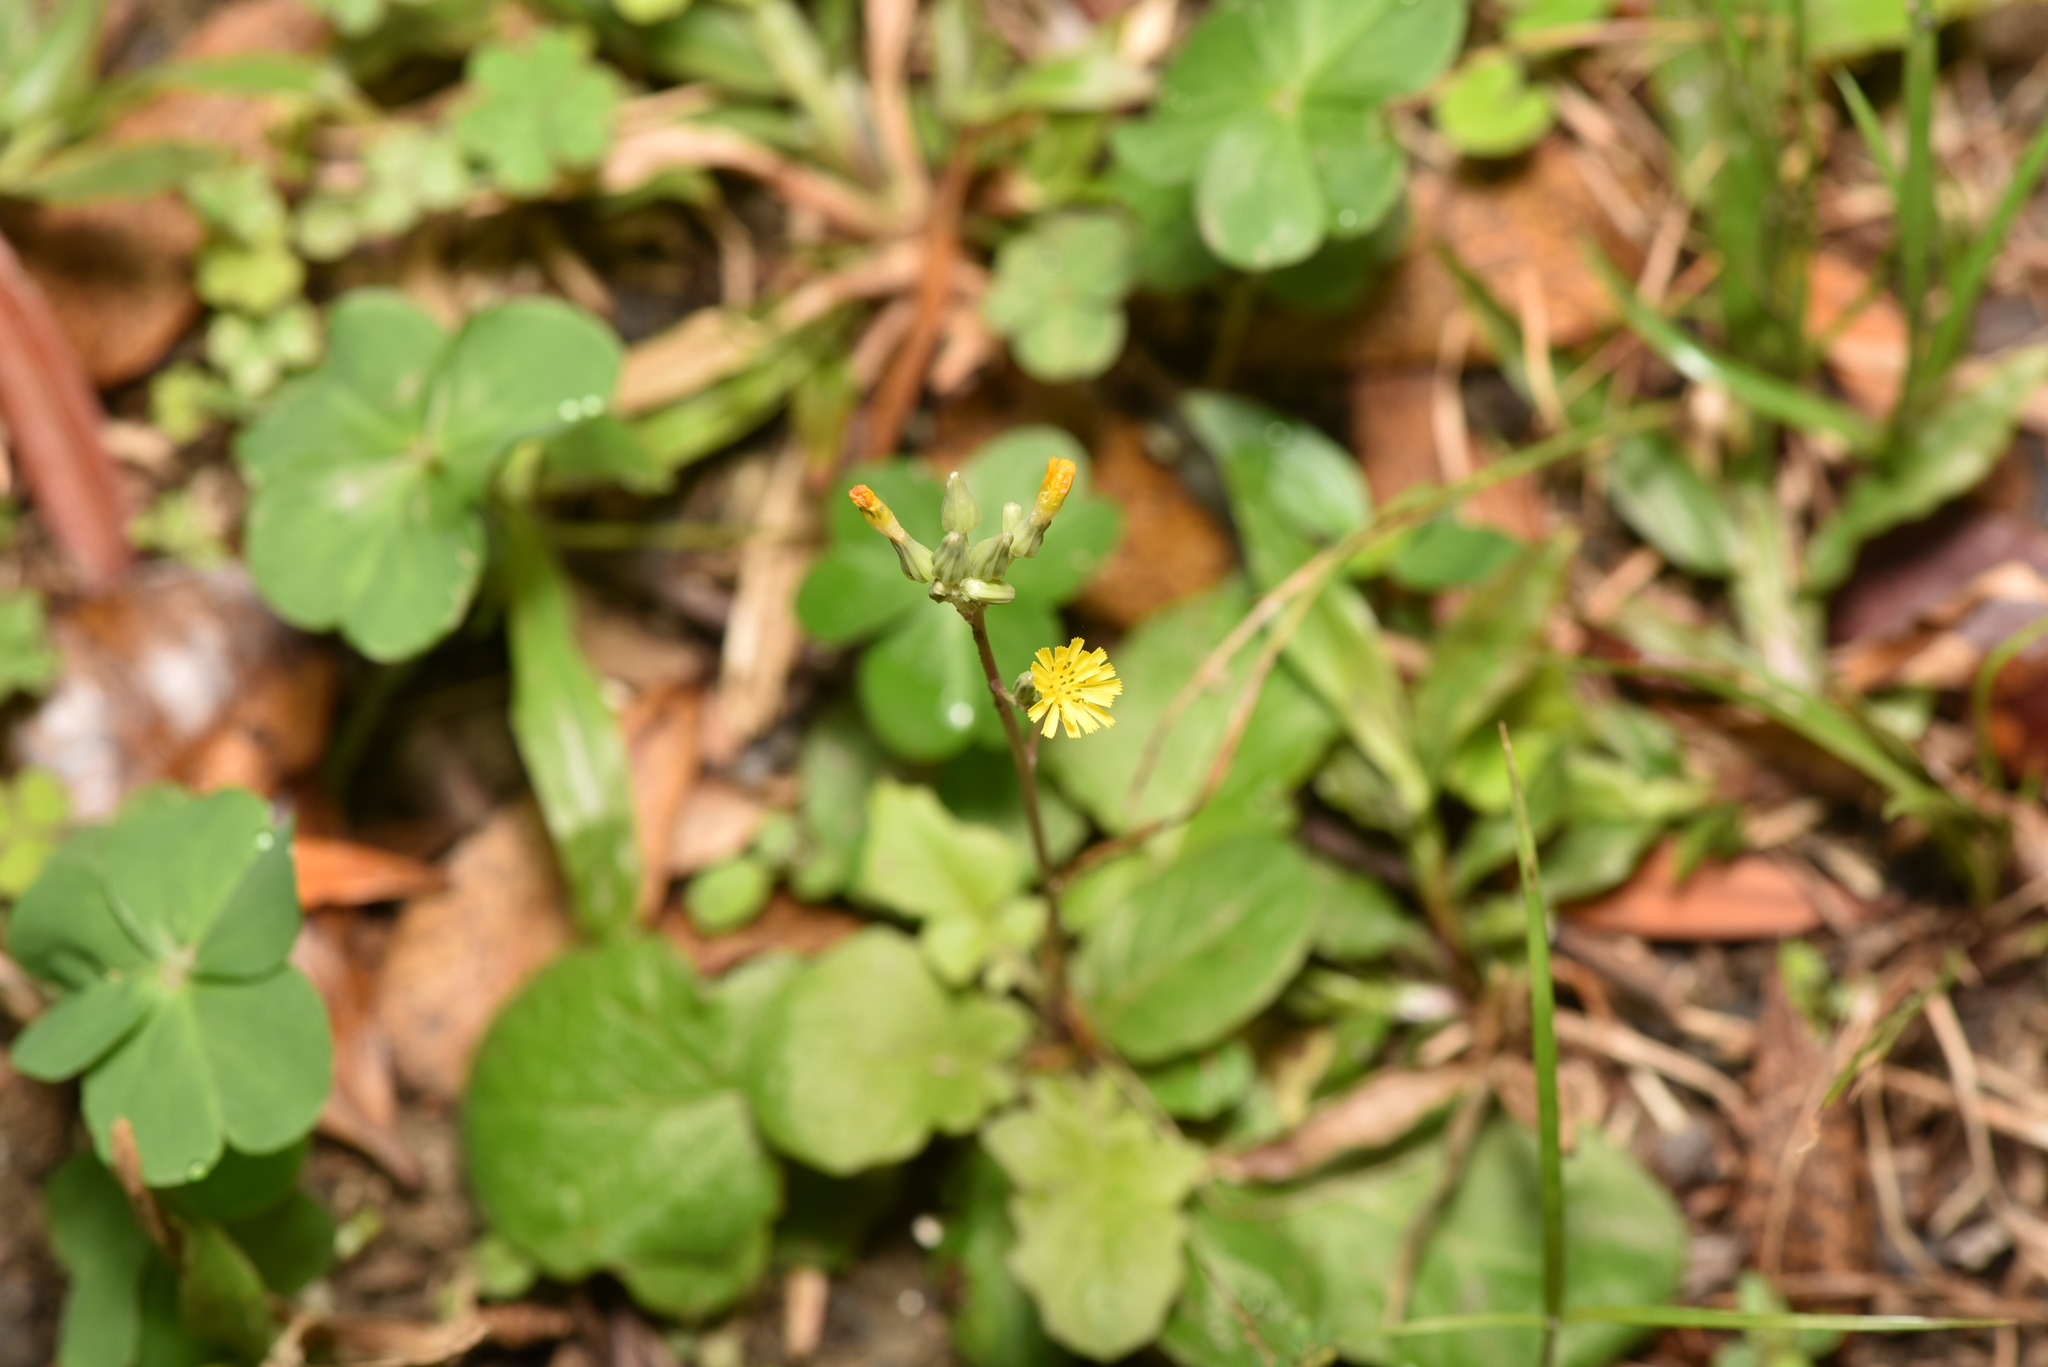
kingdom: Plantae
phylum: Tracheophyta
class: Magnoliopsida
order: Asterales
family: Asteraceae
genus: Youngia
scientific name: Youngia japonica
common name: Oriental false hawksbeard
